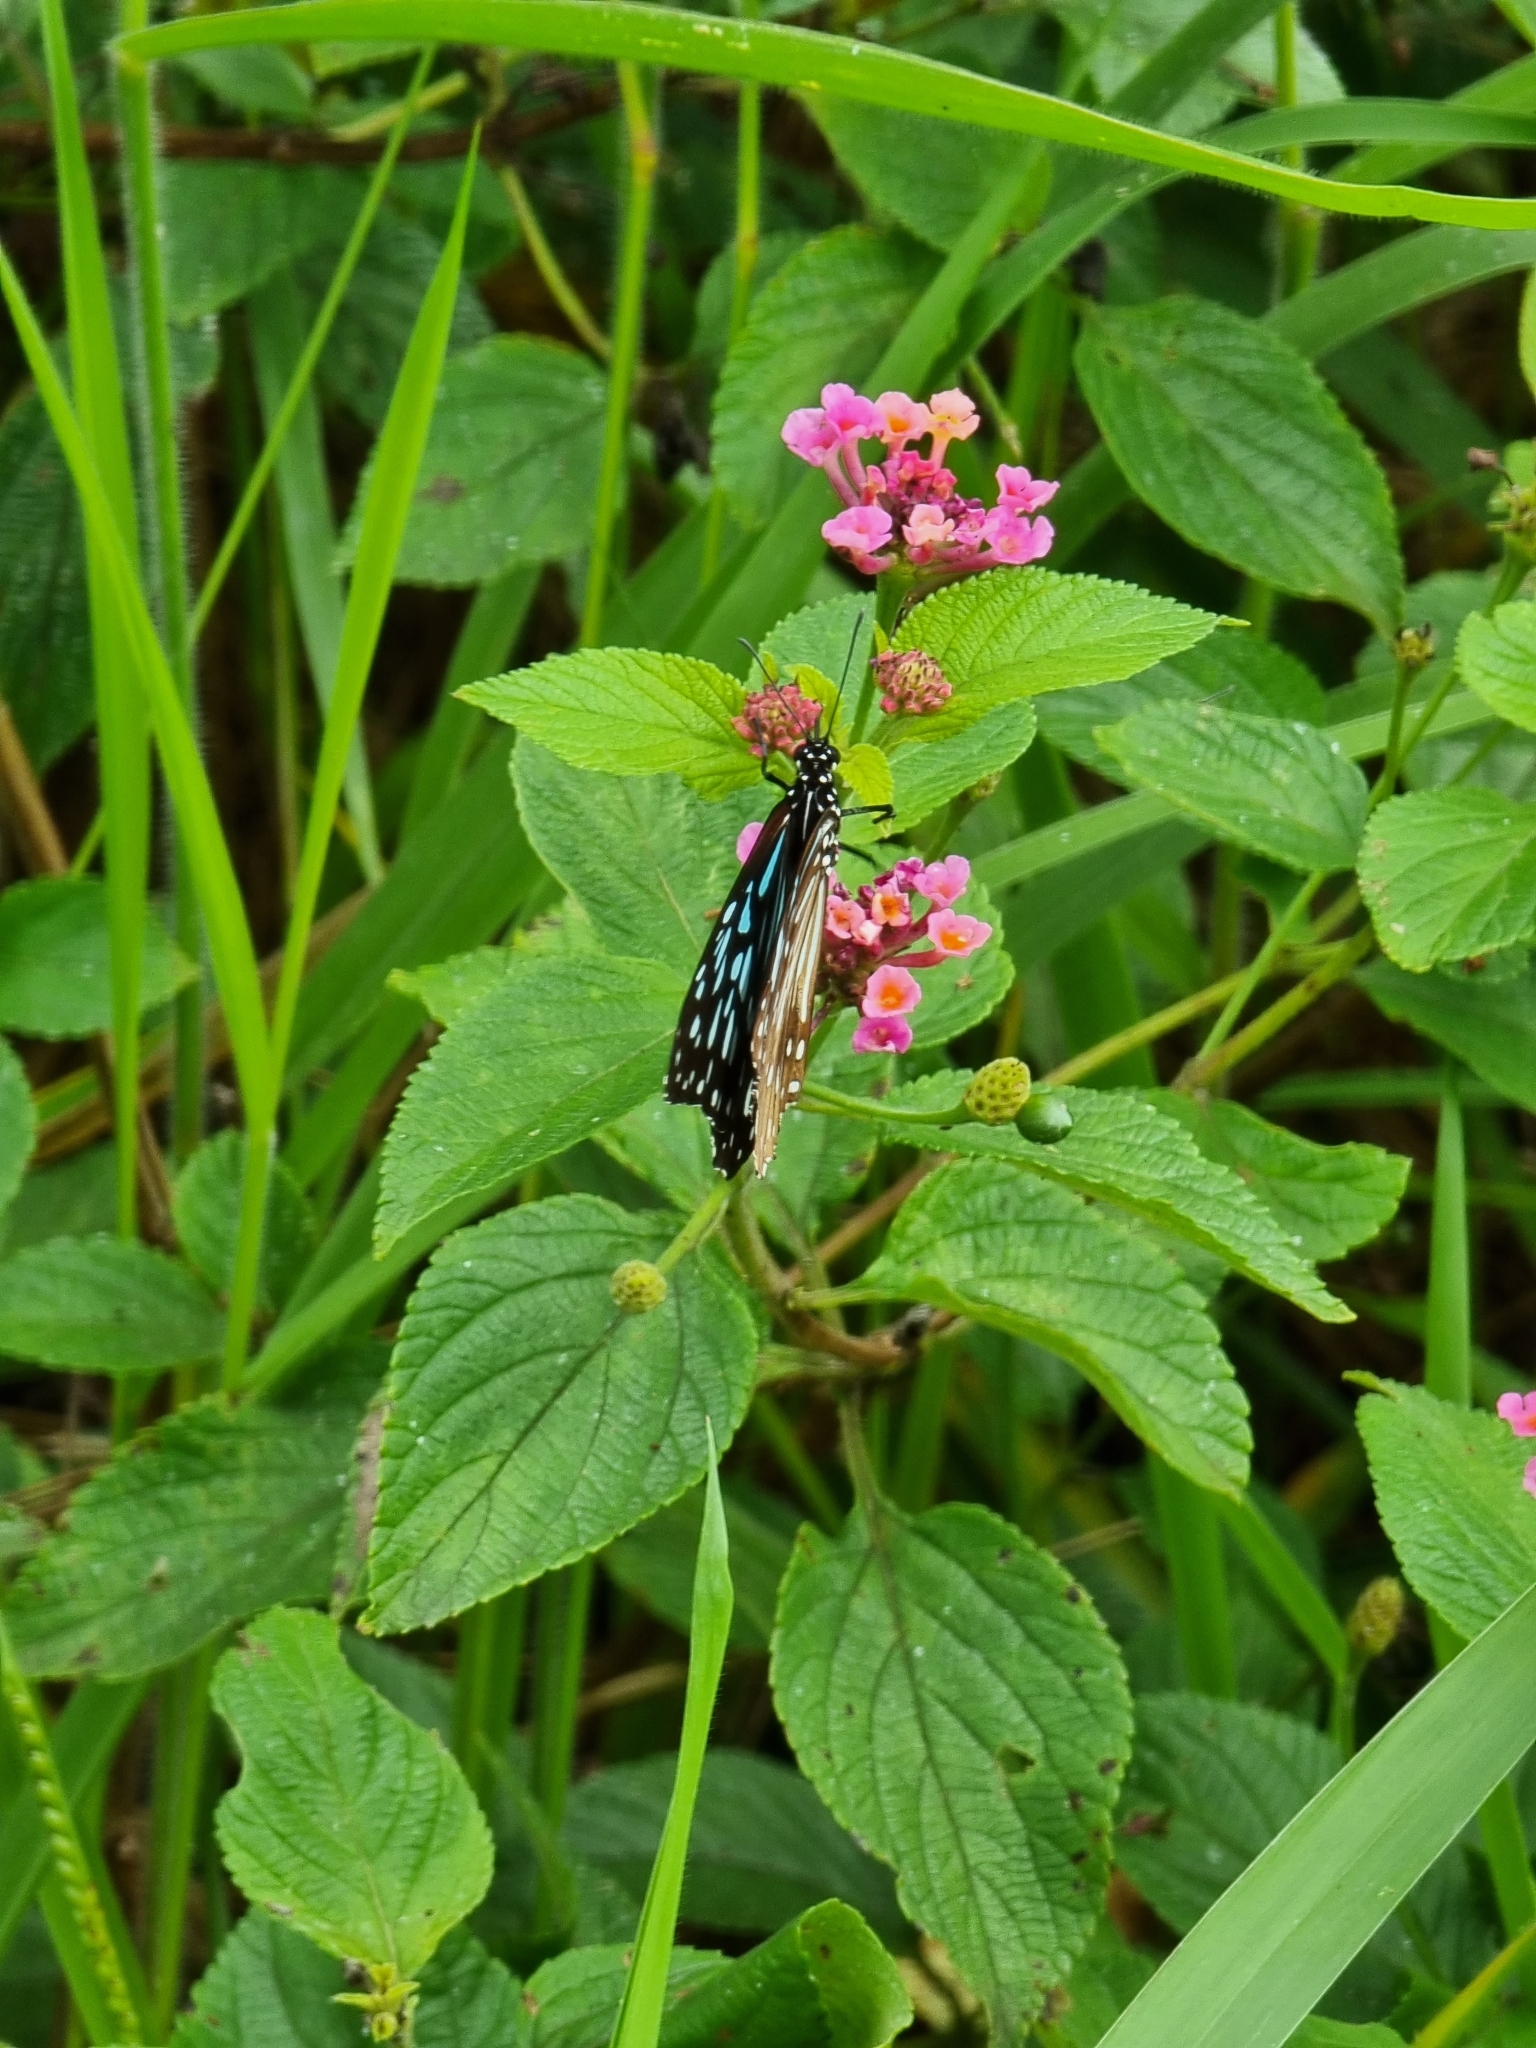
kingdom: Animalia
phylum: Arthropoda
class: Insecta
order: Lepidoptera
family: Nymphalidae
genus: Tirumala
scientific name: Tirumala hamata
